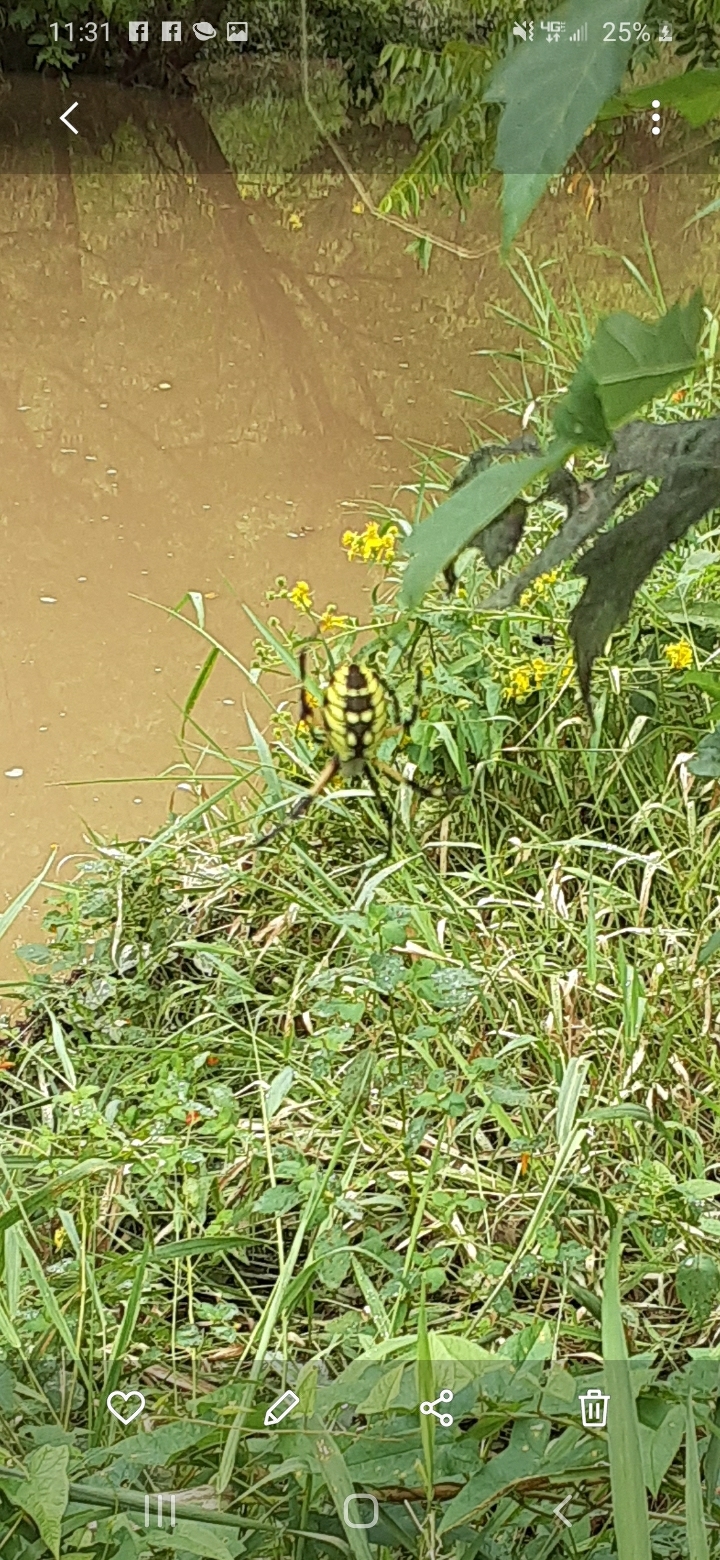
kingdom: Animalia
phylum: Arthropoda
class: Arachnida
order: Araneae
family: Araneidae
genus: Argiope
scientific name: Argiope aurantia
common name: Orb weavers
